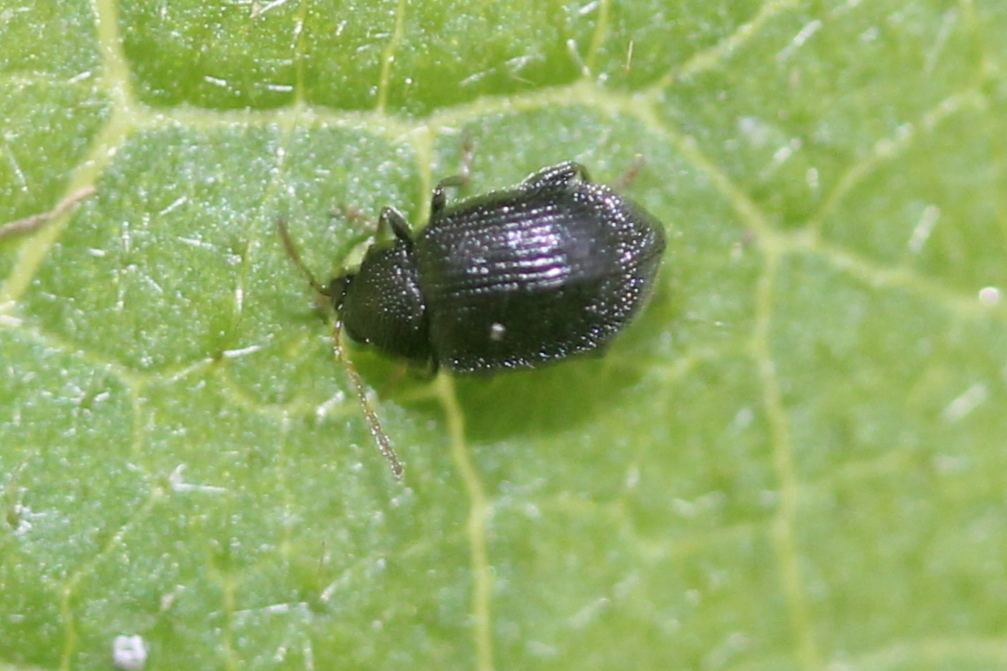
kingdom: Animalia
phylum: Arthropoda
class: Insecta
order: Coleoptera
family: Chrysomelidae
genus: Epitrix
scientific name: Epitrix fuscula
